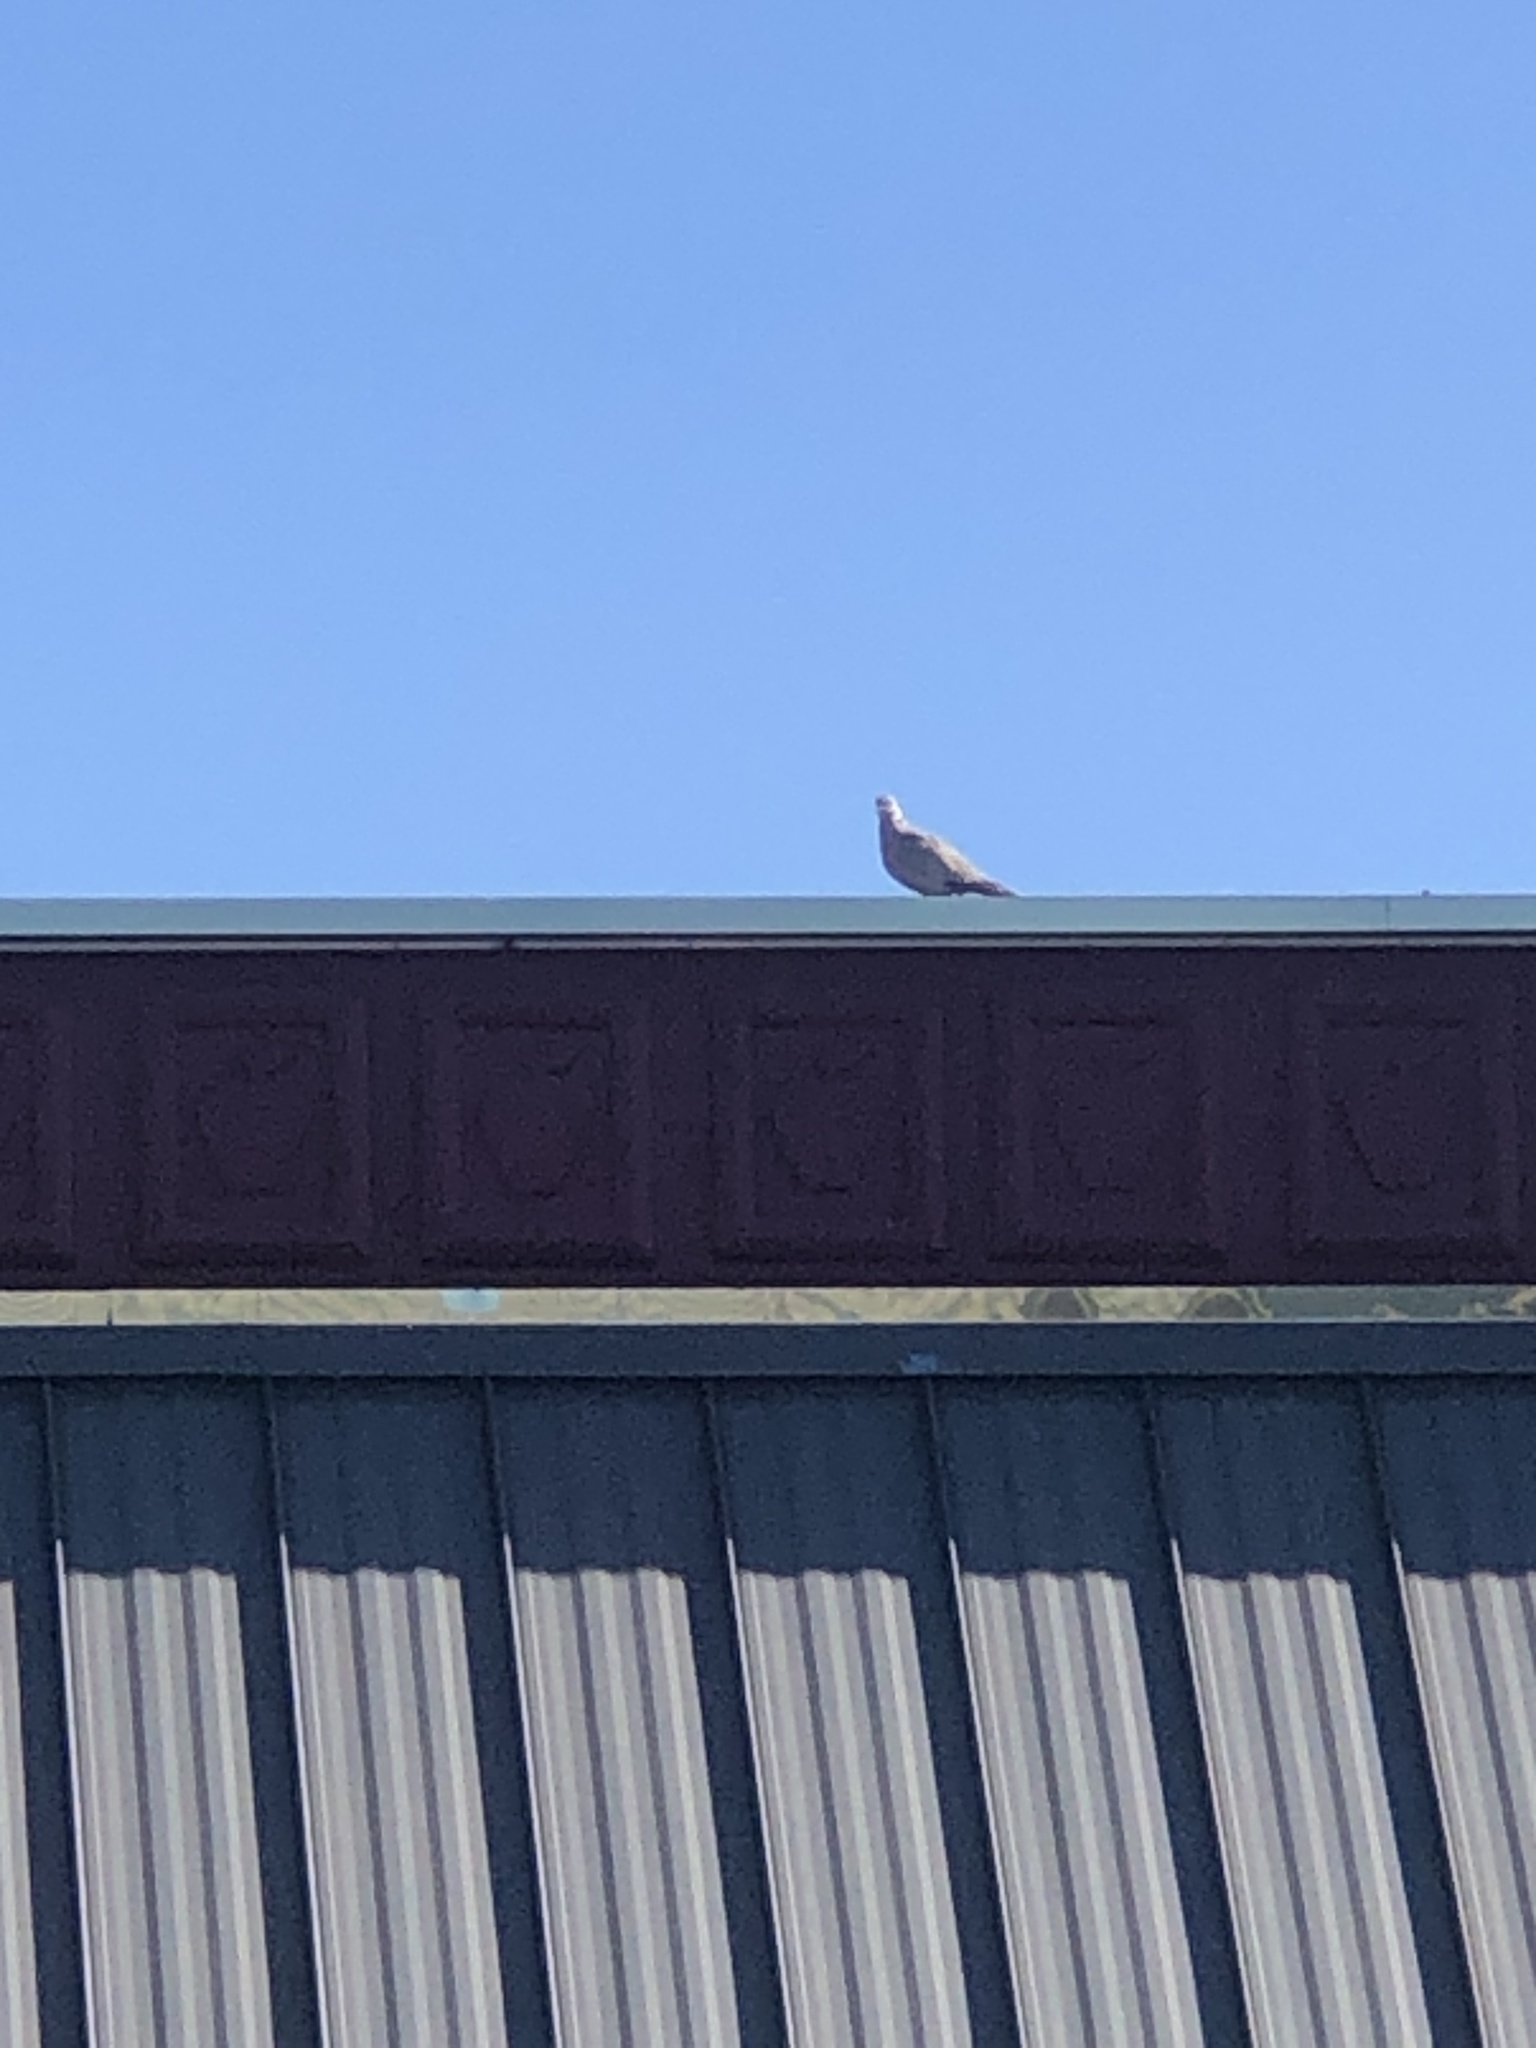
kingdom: Animalia
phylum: Chordata
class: Aves
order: Columbiformes
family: Columbidae
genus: Streptopelia
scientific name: Streptopelia decaocto
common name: Eurasian collared dove
